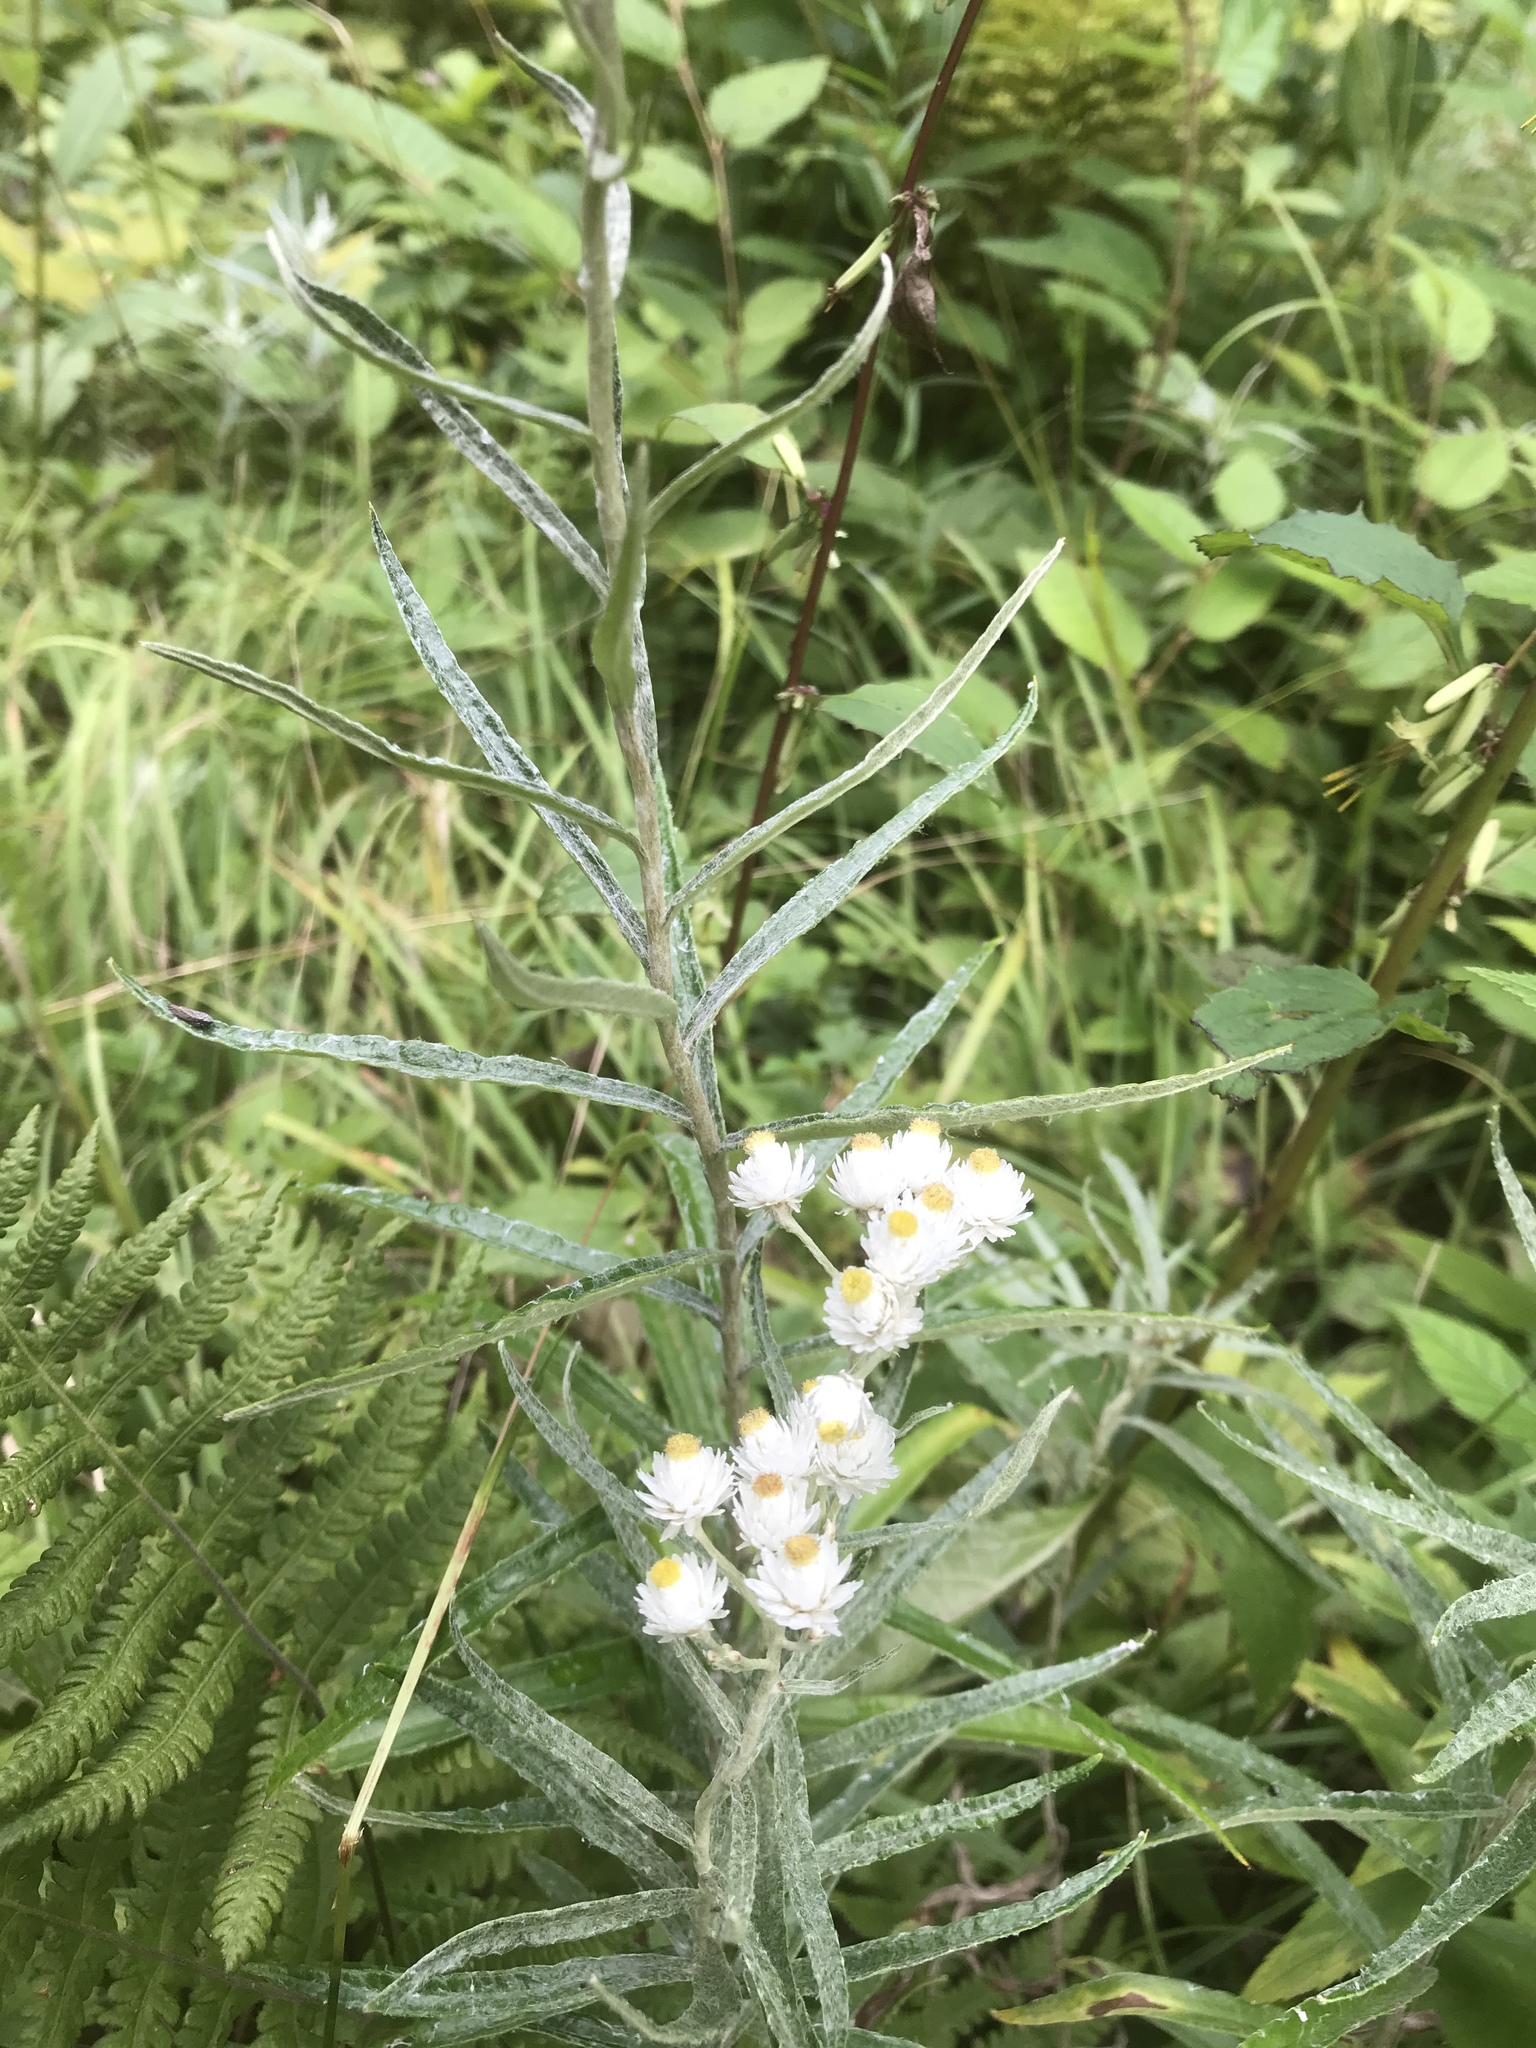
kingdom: Plantae
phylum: Tracheophyta
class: Magnoliopsida
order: Asterales
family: Asteraceae
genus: Anaphalis
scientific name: Anaphalis margaritacea
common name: Pearly everlasting
